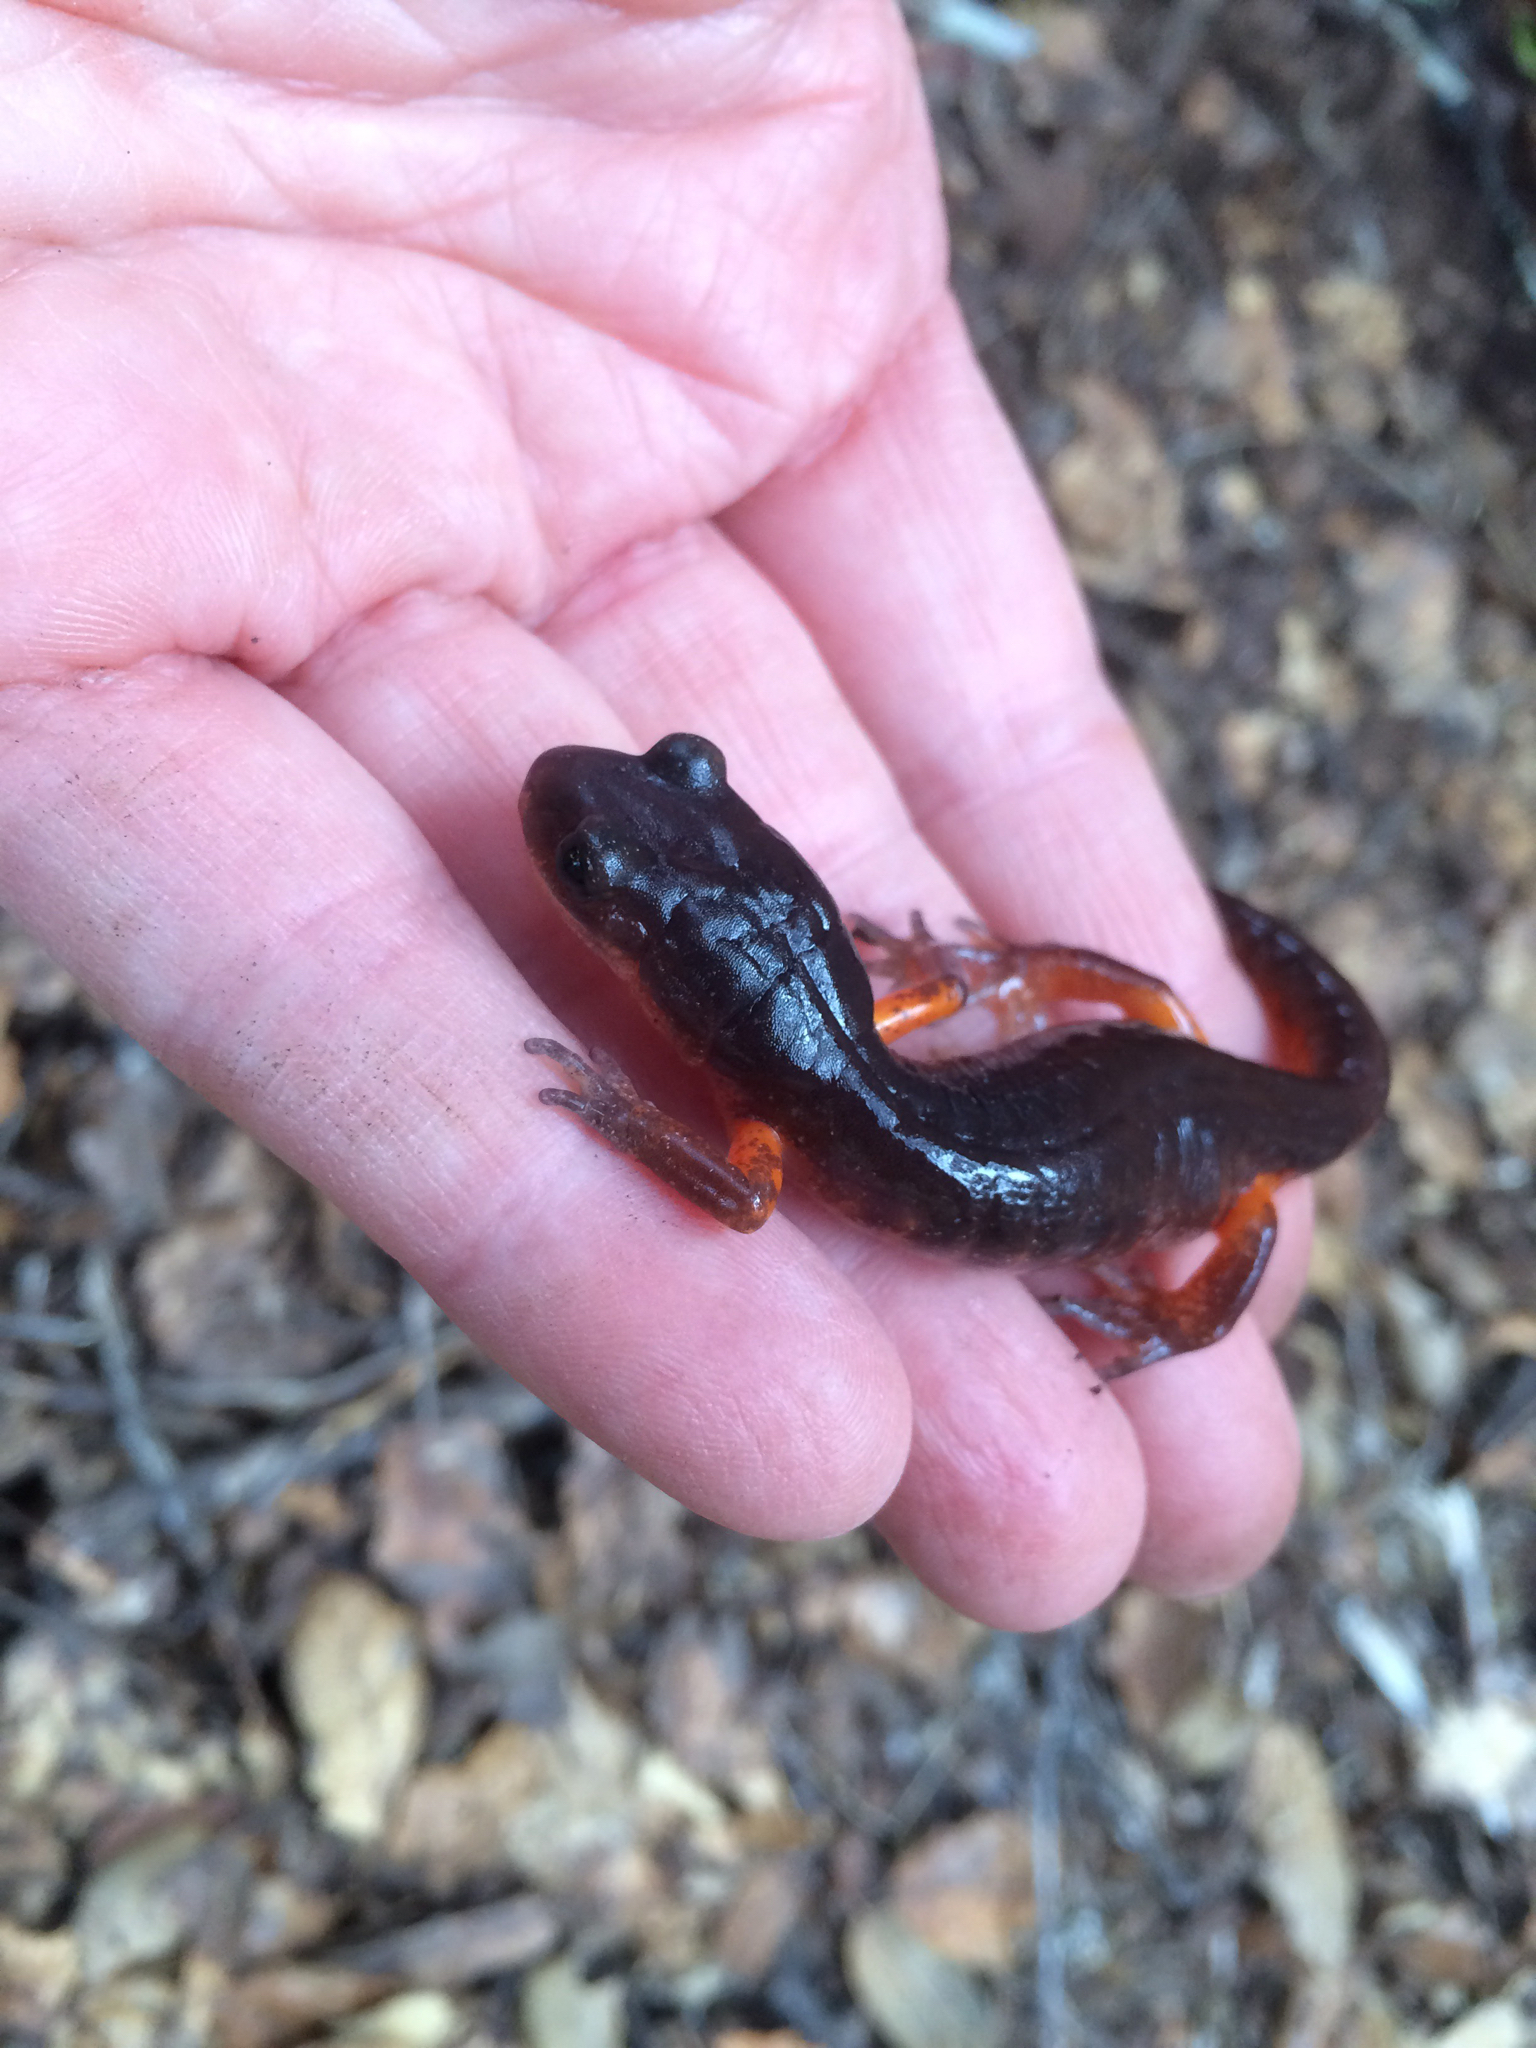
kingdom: Animalia
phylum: Chordata
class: Amphibia
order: Caudata
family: Plethodontidae
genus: Ensatina
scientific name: Ensatina eschscholtzii
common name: Ensatina
